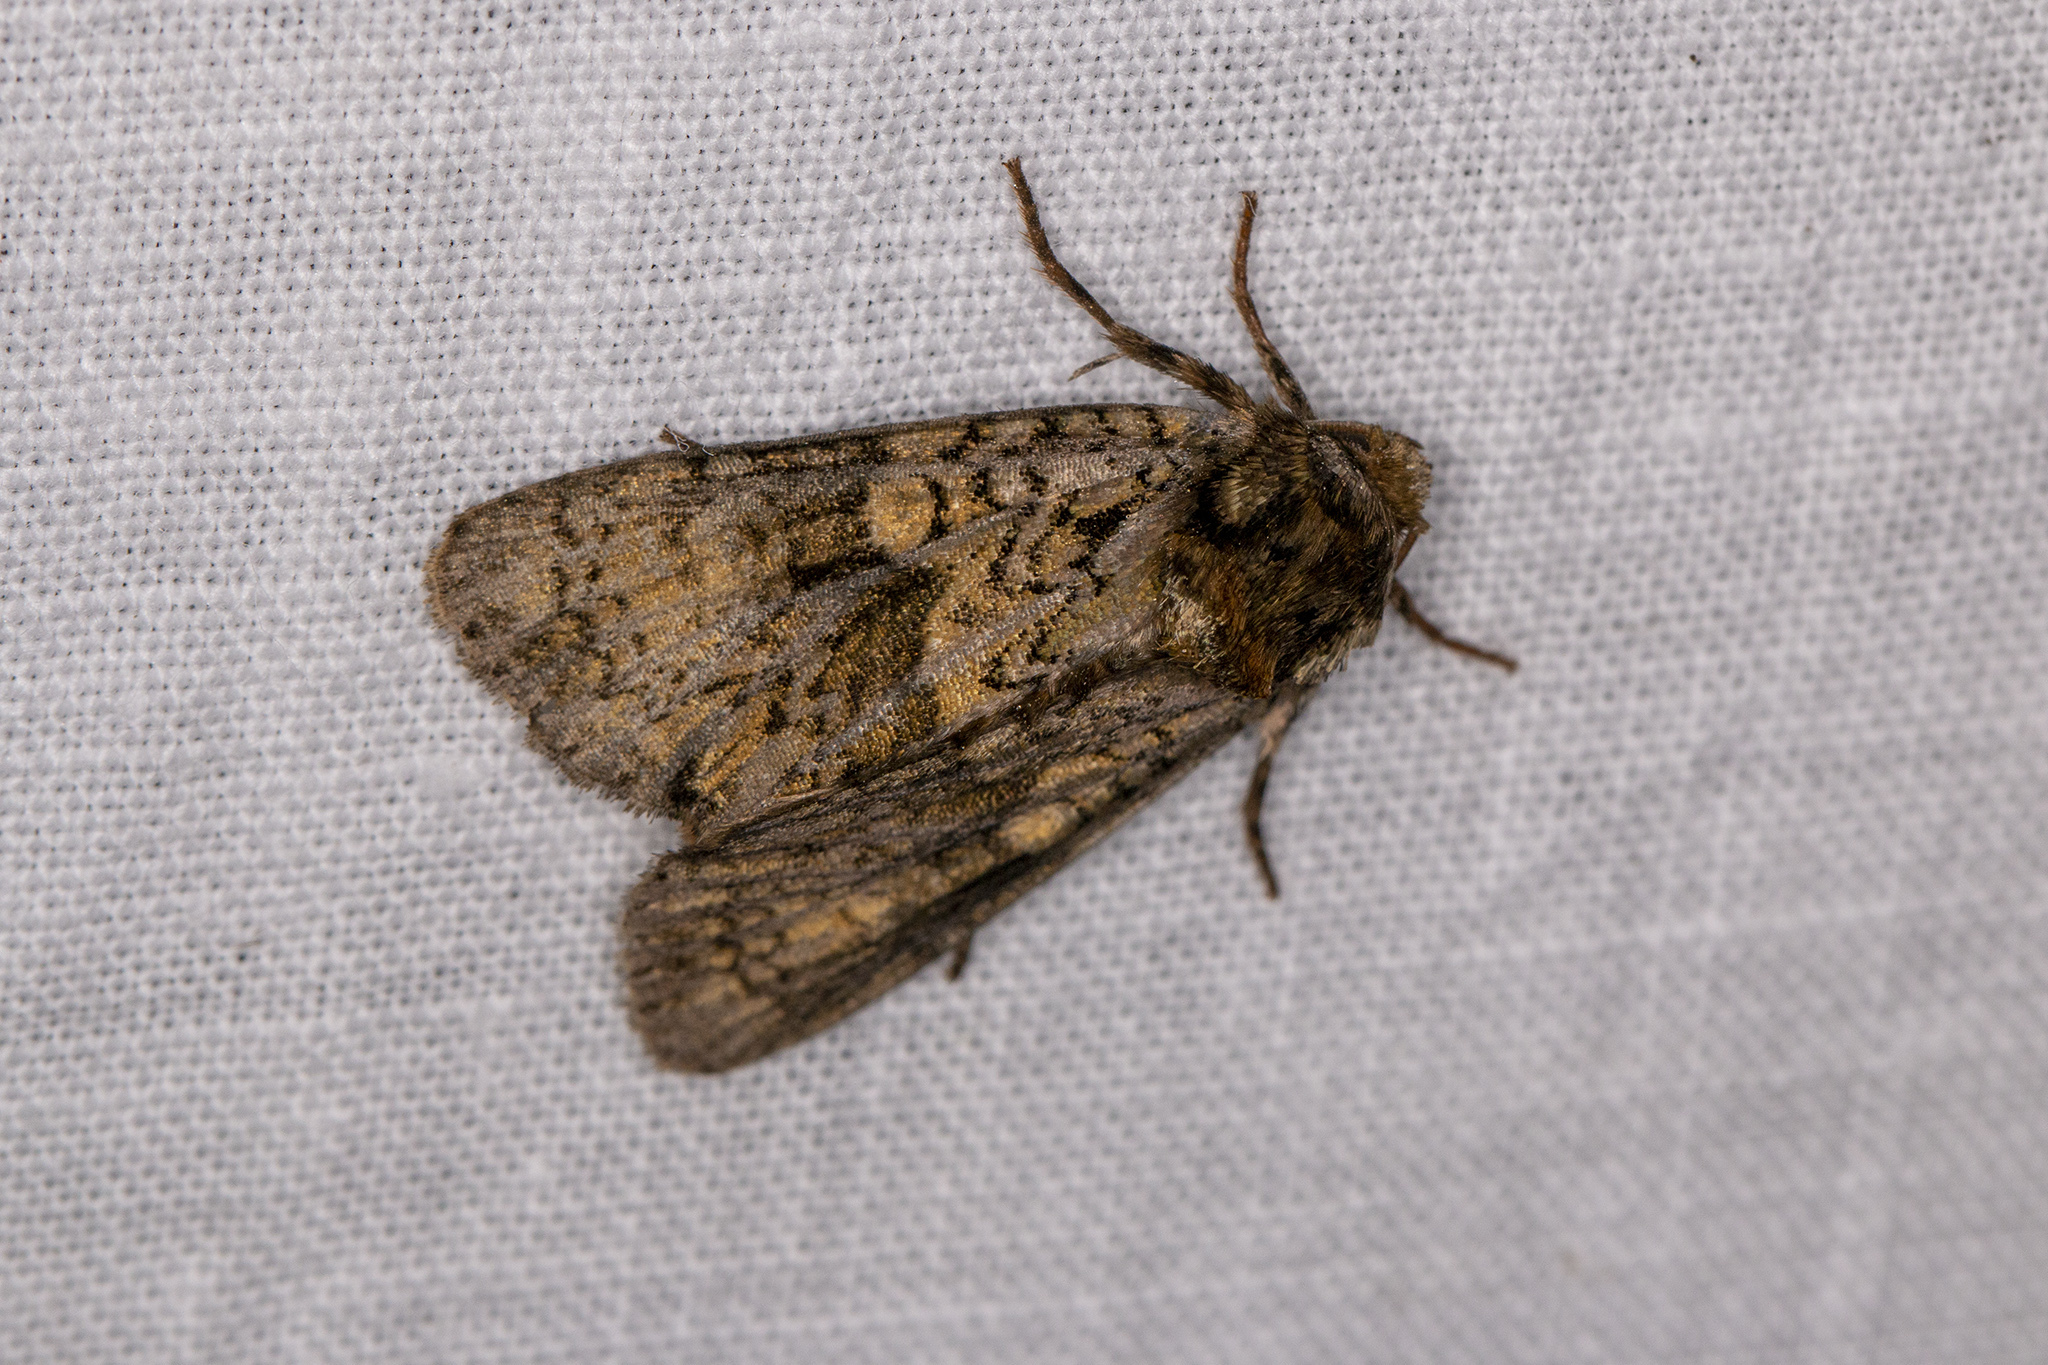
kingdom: Animalia
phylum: Arthropoda
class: Insecta
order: Lepidoptera
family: Noctuidae
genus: Craniophora
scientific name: Craniophora ligustri
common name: Coronet
